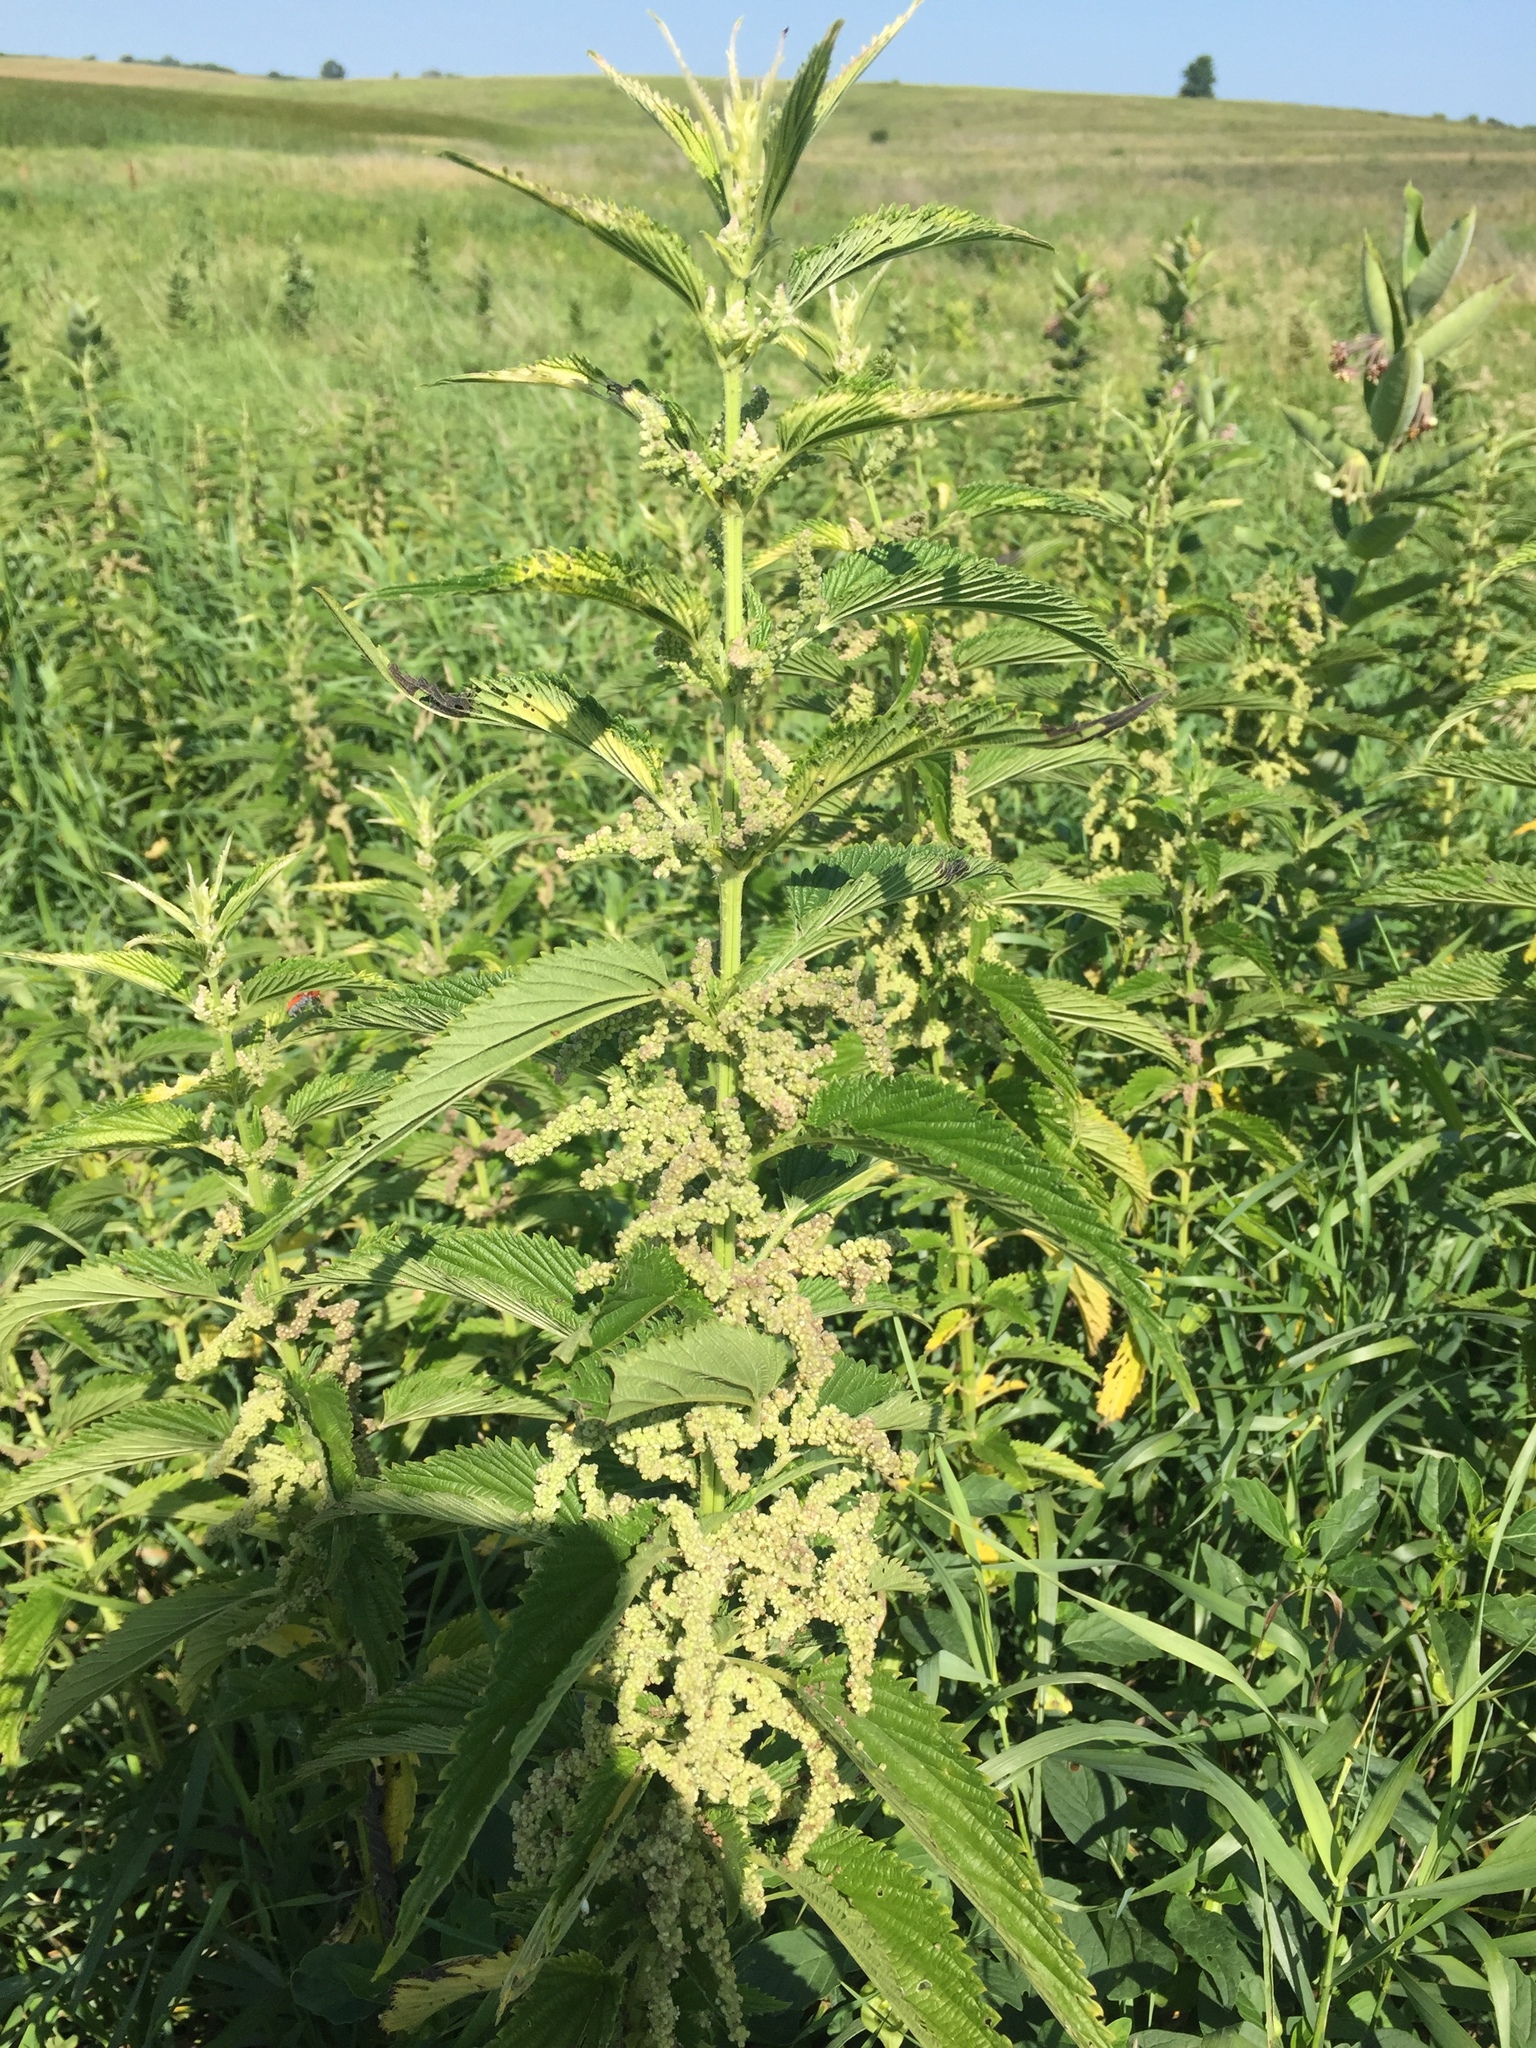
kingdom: Plantae
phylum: Tracheophyta
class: Magnoliopsida
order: Rosales
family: Urticaceae
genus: Urtica
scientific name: Urtica dioica
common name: Common nettle
